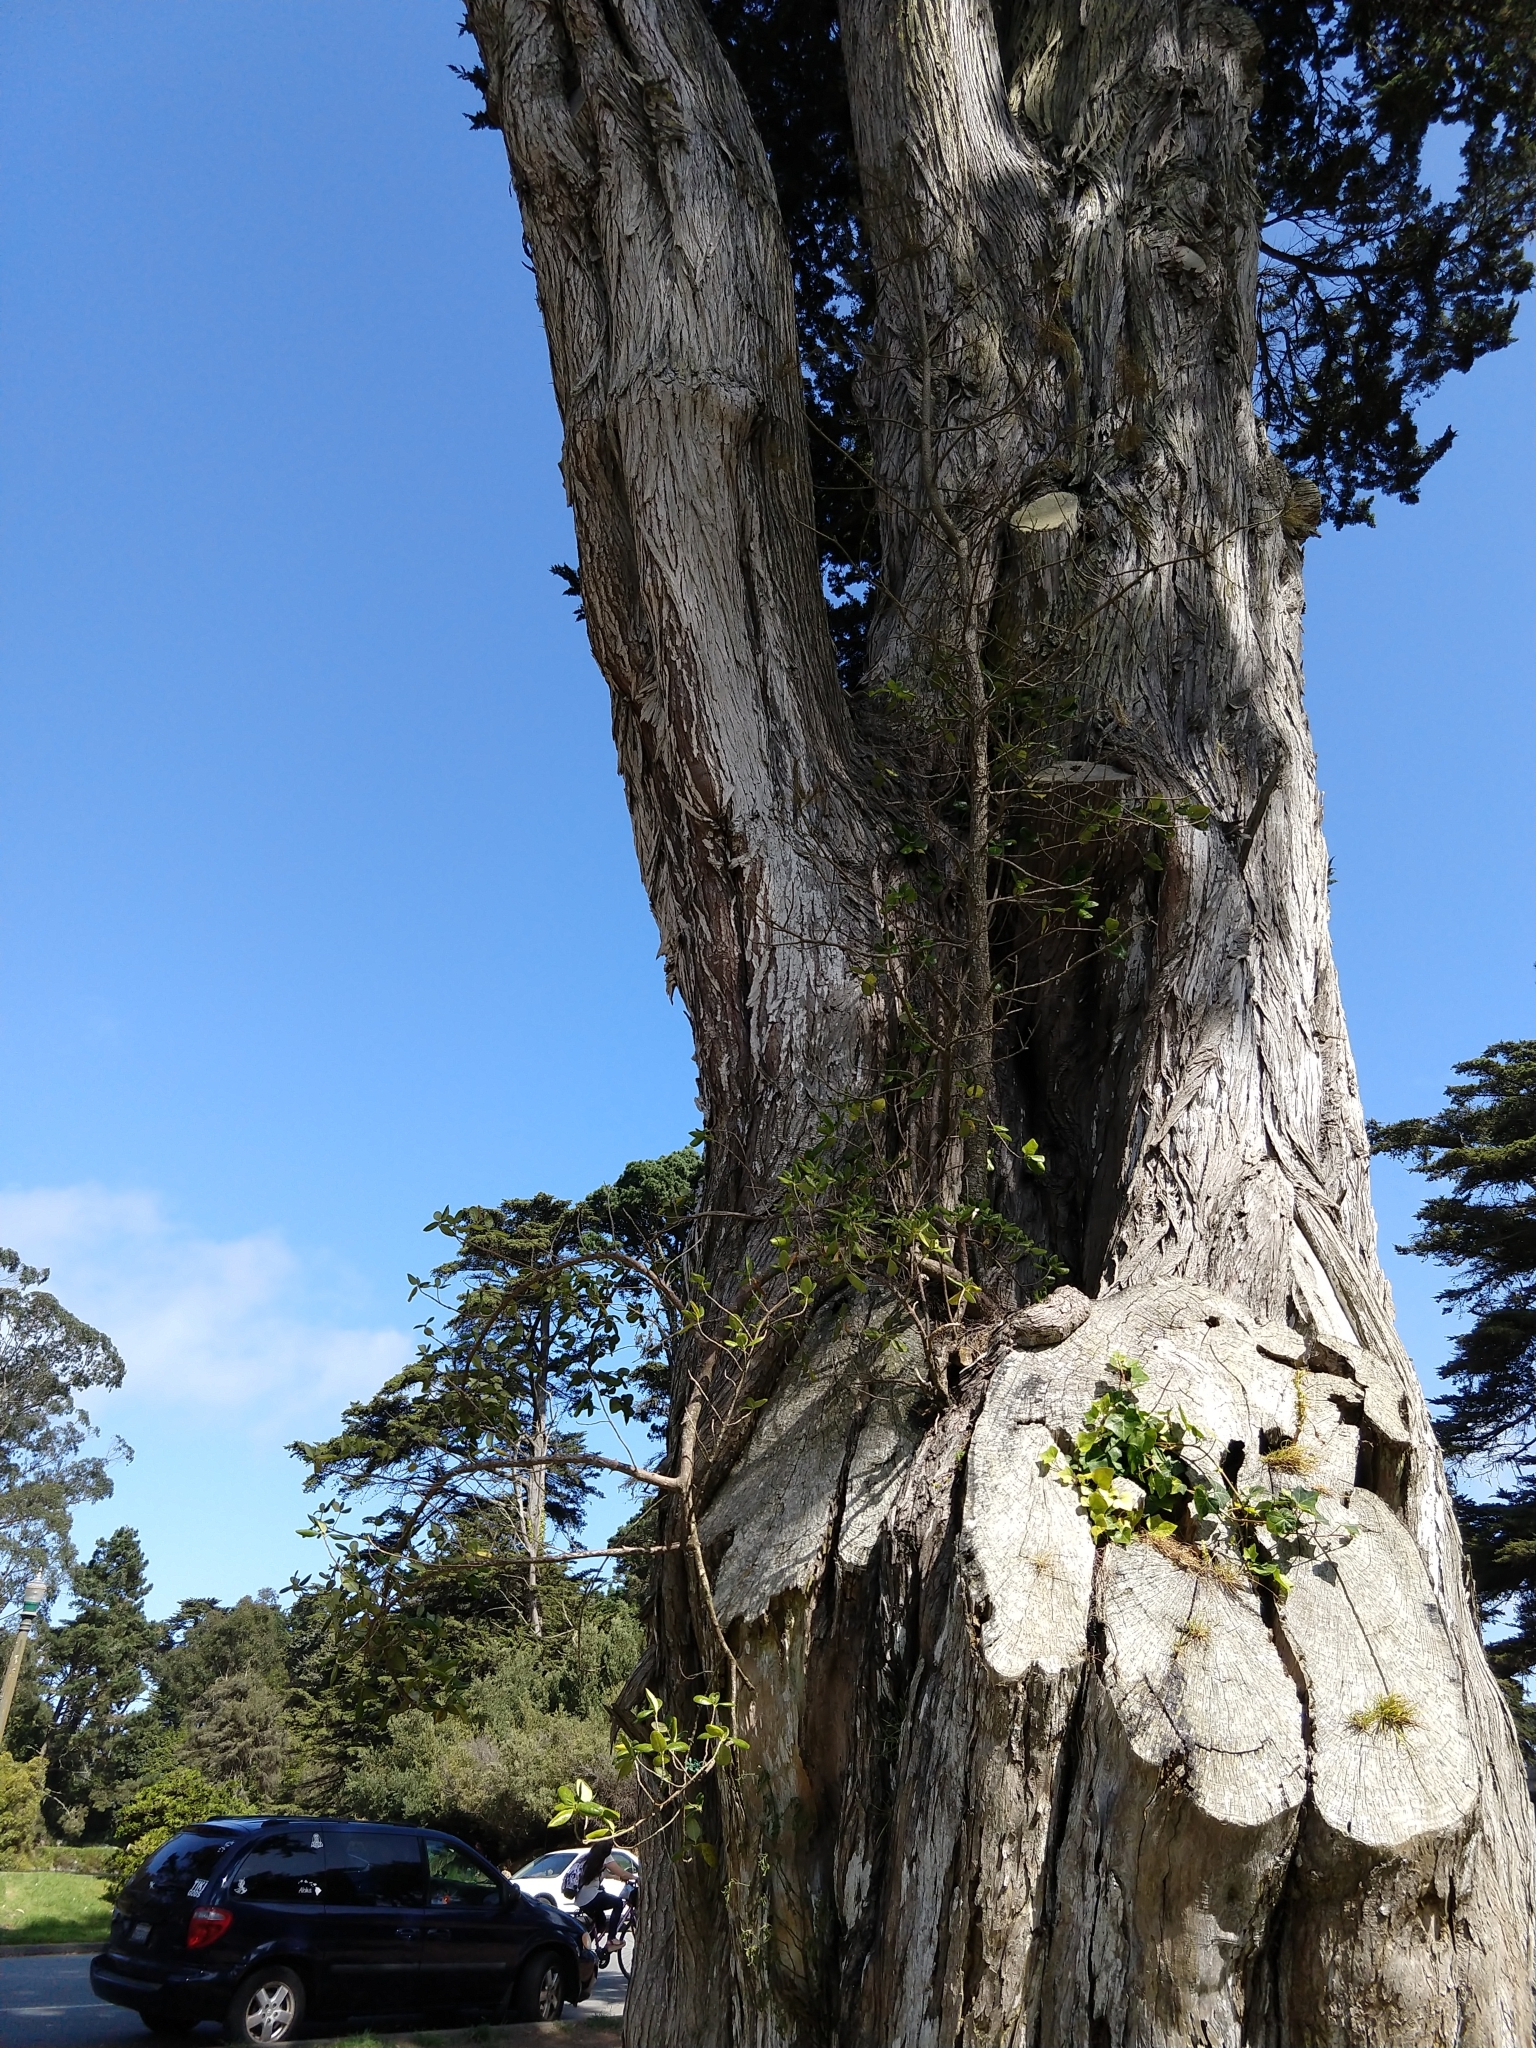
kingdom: Plantae
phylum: Tracheophyta
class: Magnoliopsida
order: Gentianales
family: Rubiaceae
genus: Coprosma
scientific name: Coprosma repens
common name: Tree bedstraw
